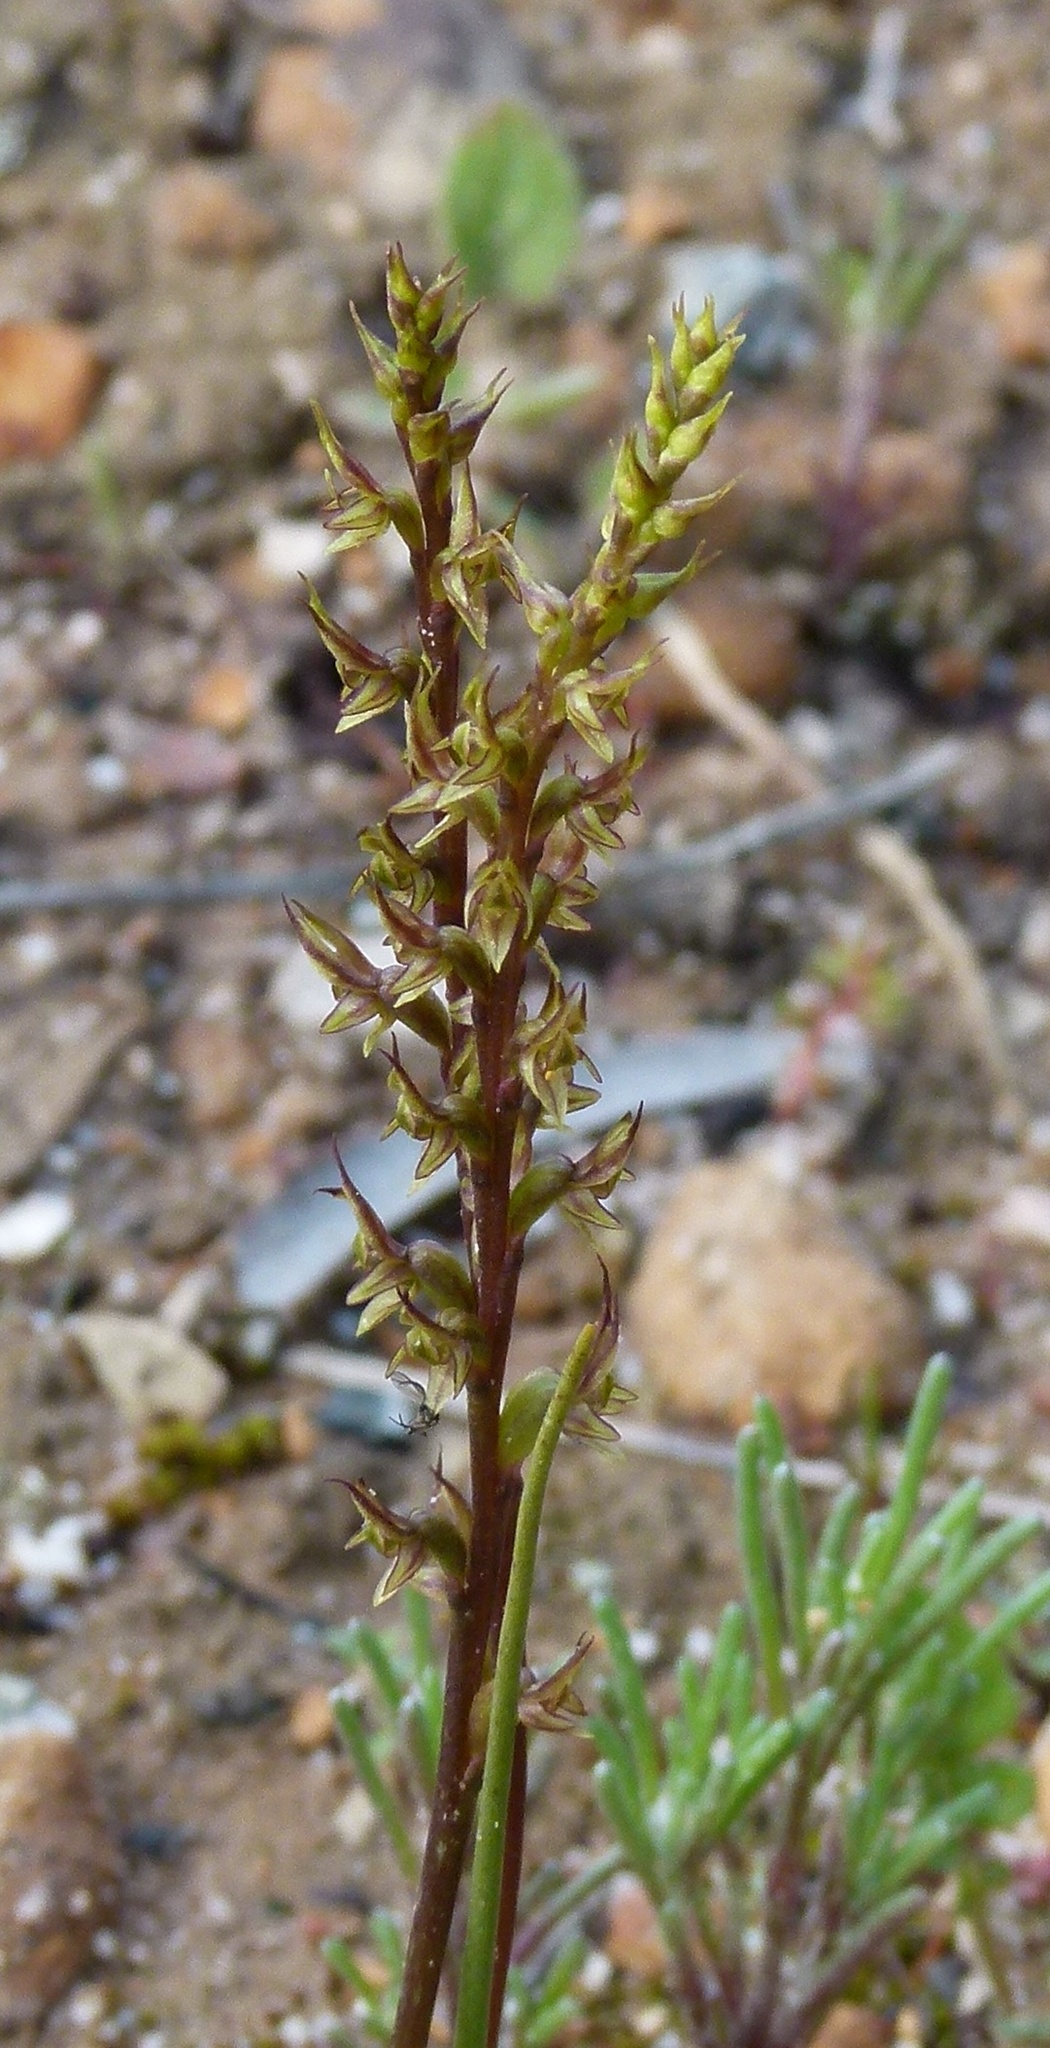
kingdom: Plantae
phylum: Tracheophyta
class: Liliopsida
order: Asparagales
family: Orchidaceae
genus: Prasophyllum
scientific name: Prasophyllum gracile
